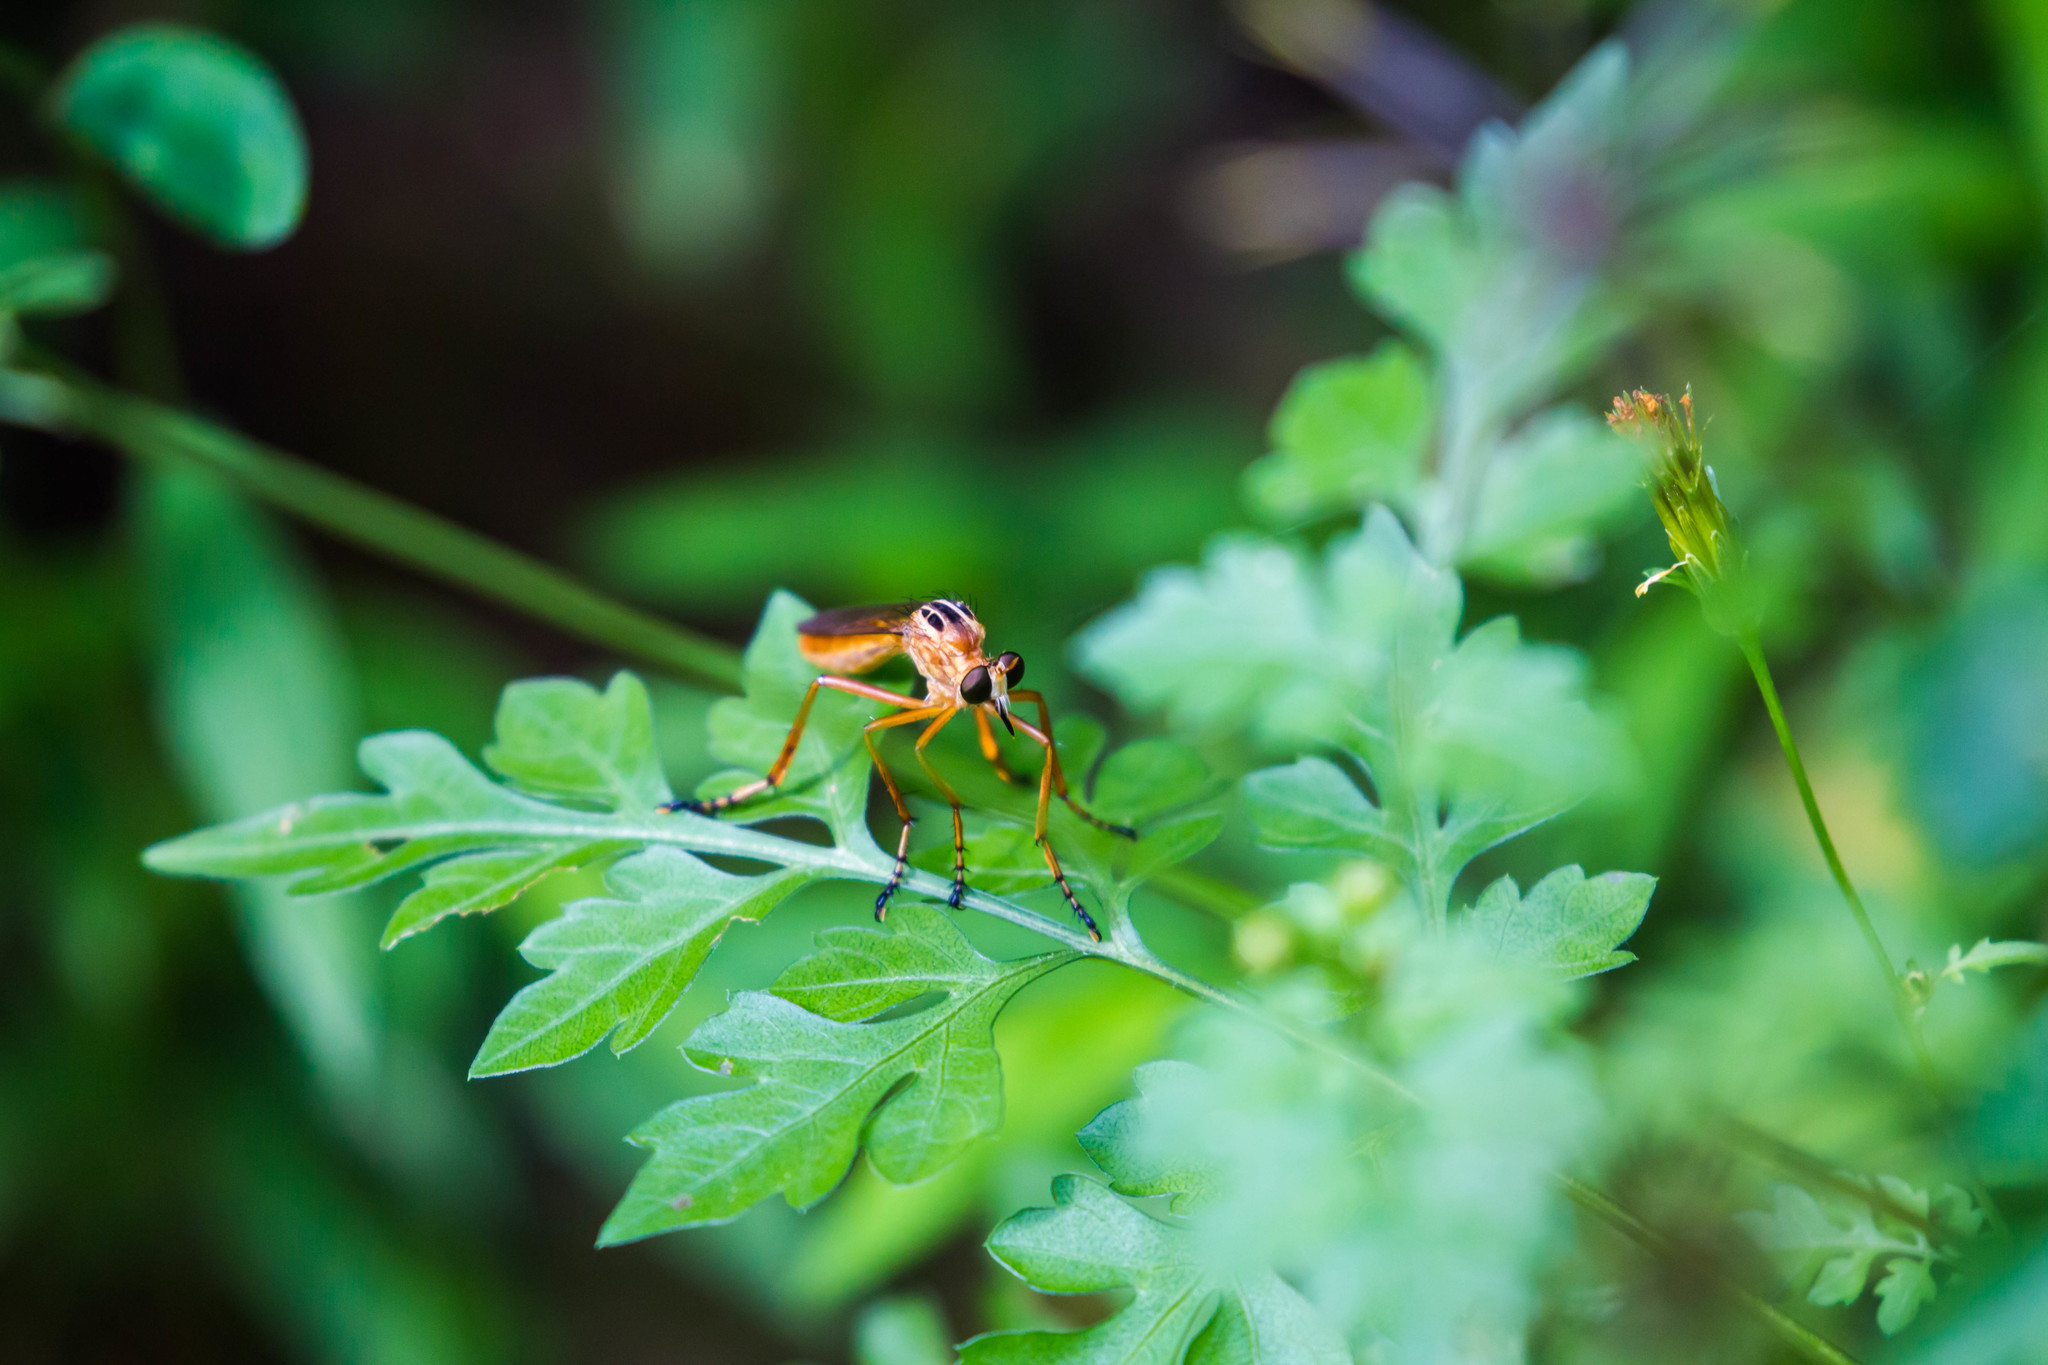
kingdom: Animalia
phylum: Arthropoda
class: Insecta
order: Diptera
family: Asilidae
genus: Diogmites
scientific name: Diogmites neoternatus
